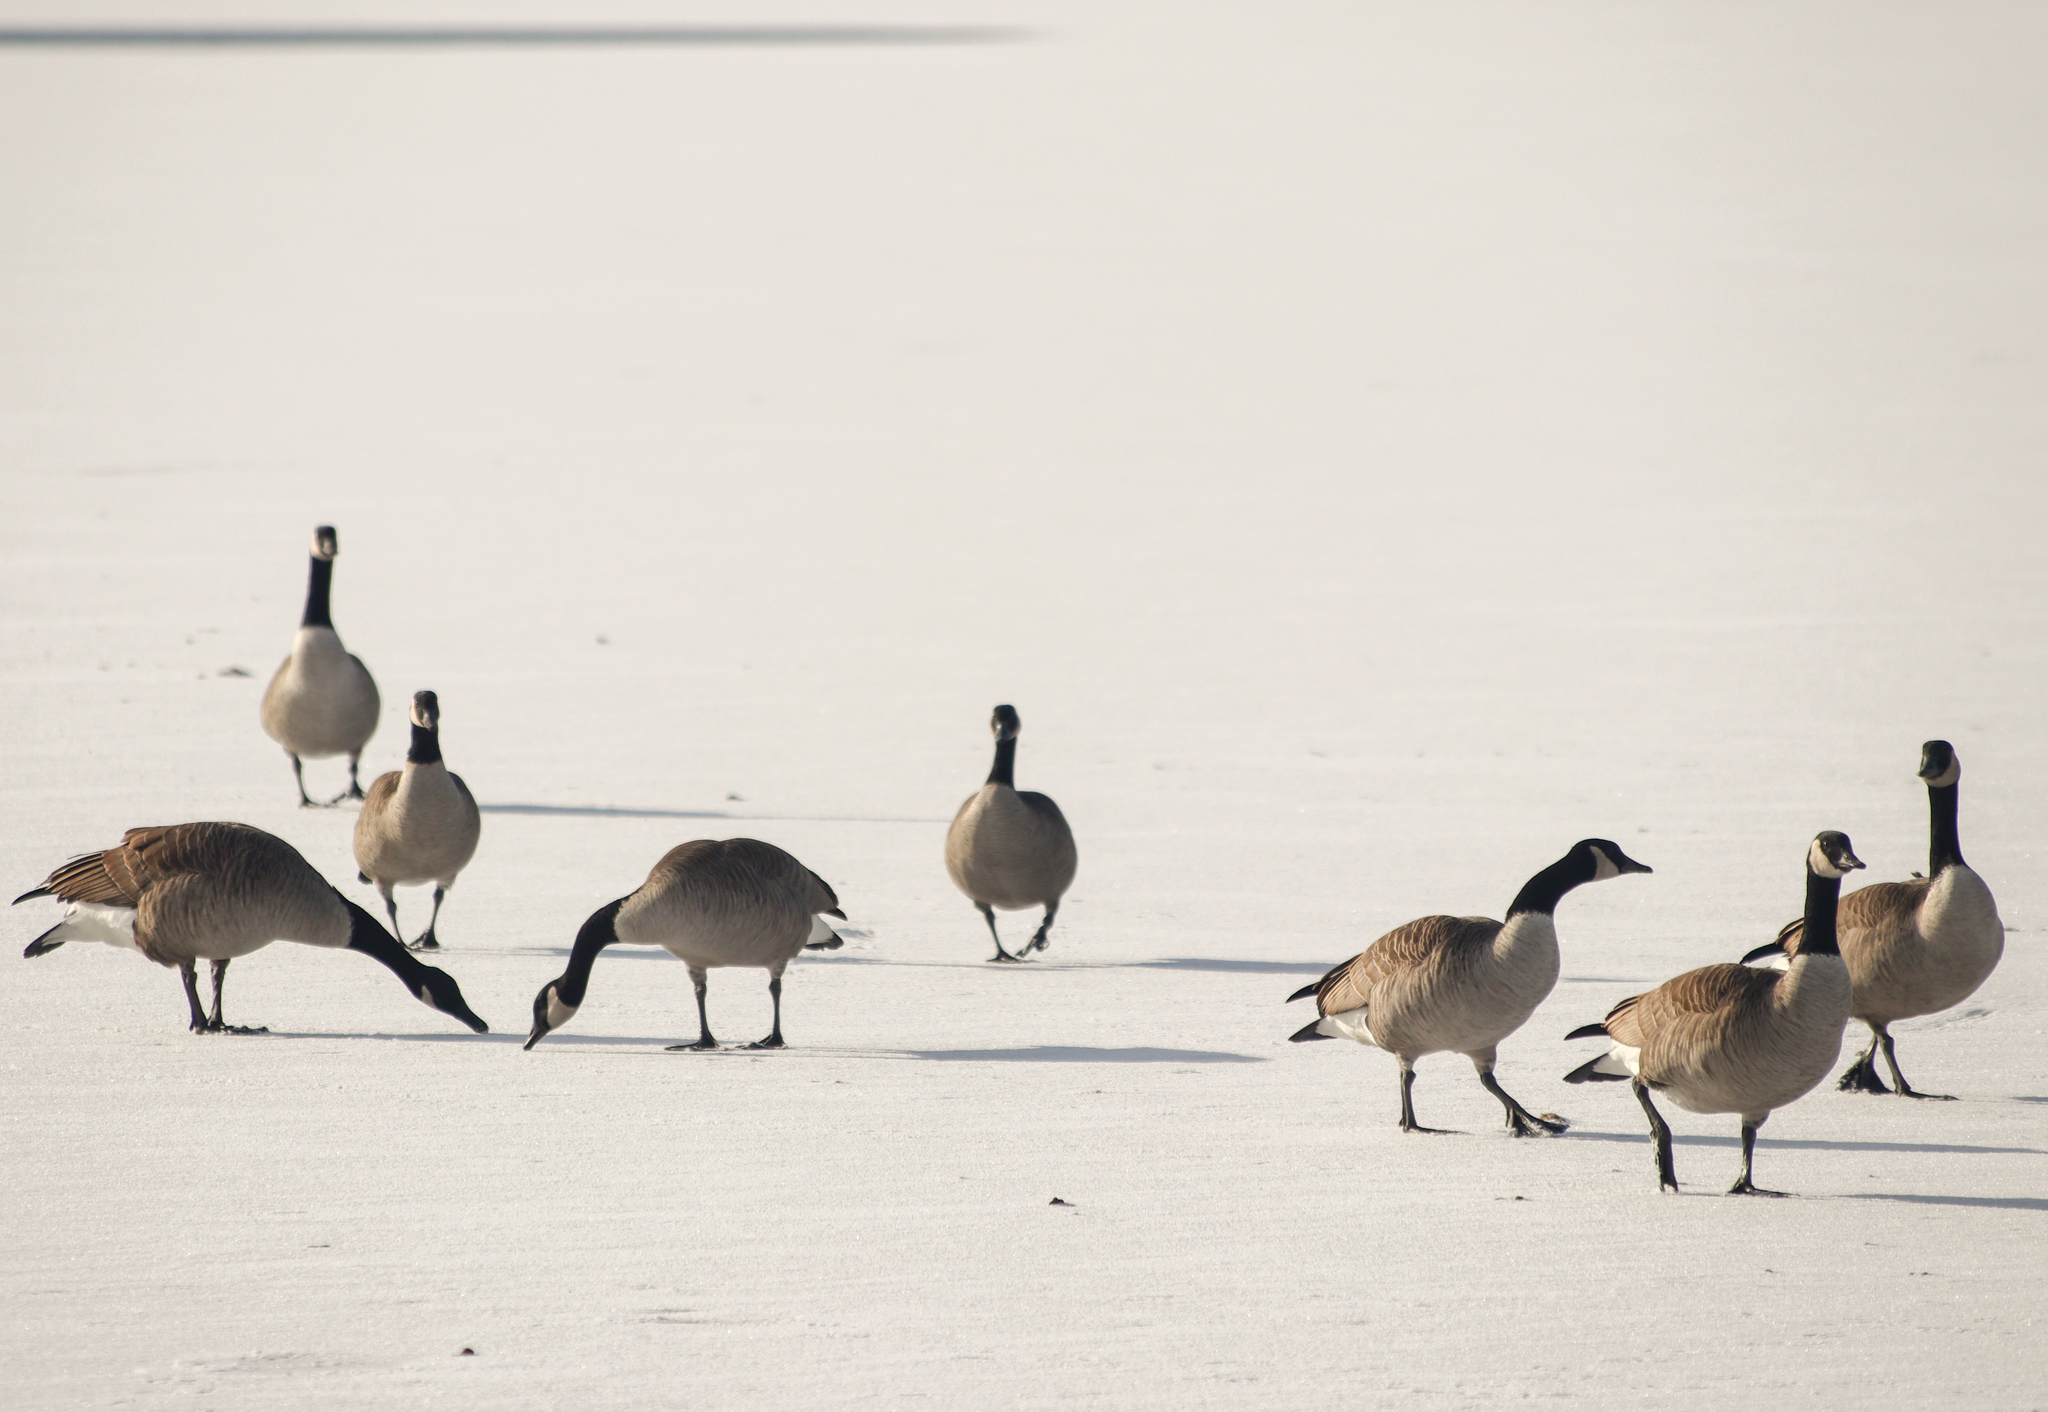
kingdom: Animalia
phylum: Chordata
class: Aves
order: Anseriformes
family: Anatidae
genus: Branta
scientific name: Branta canadensis
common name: Canada goose
